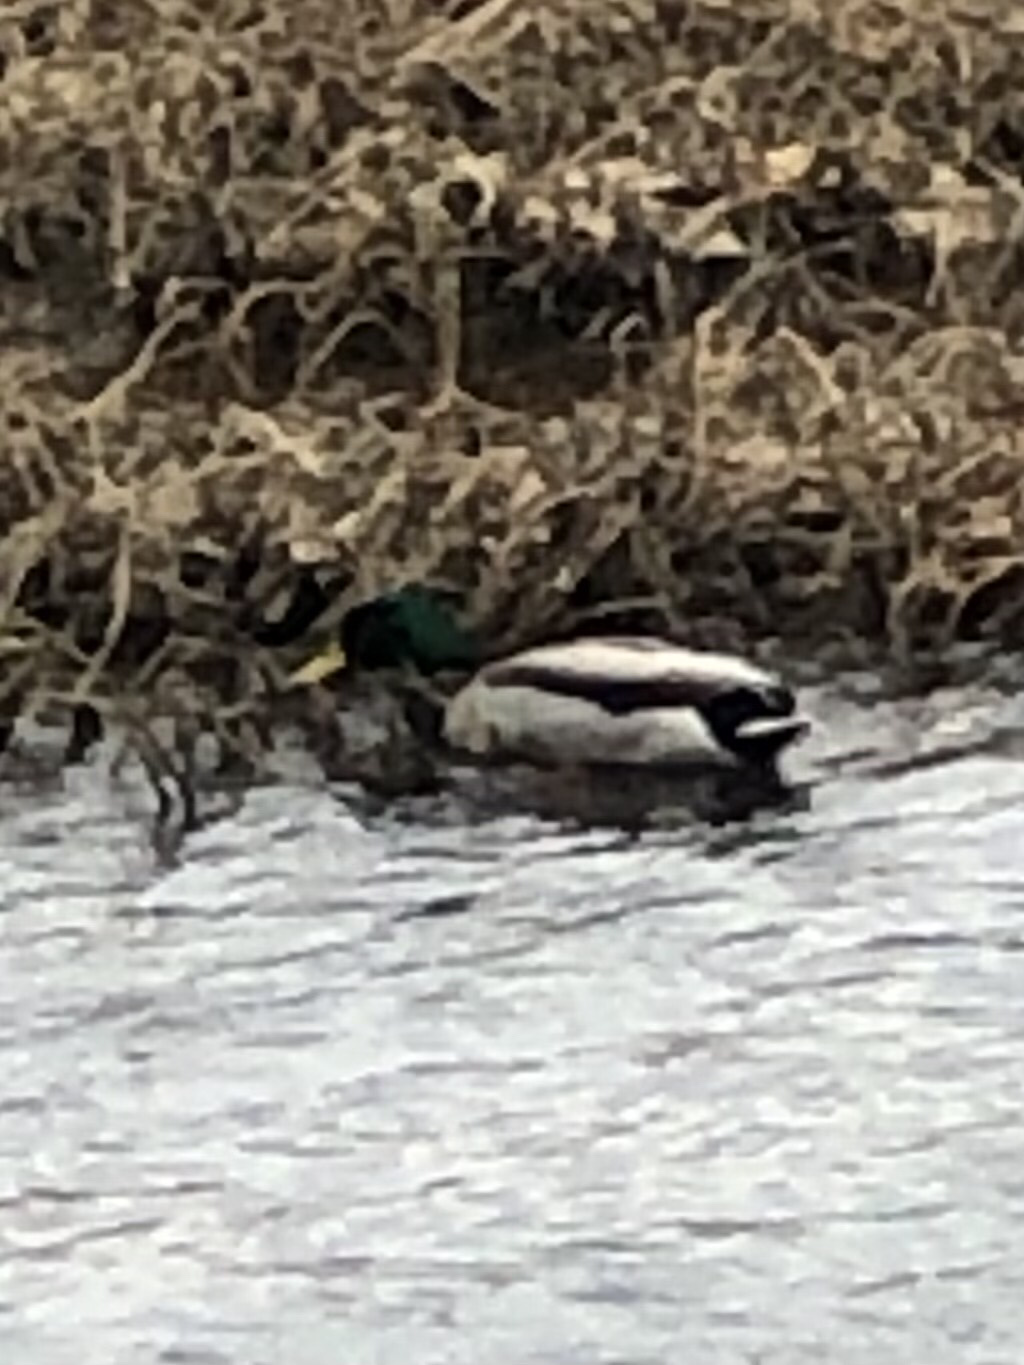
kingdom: Animalia
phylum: Chordata
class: Aves
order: Anseriformes
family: Anatidae
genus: Anas
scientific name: Anas platyrhynchos
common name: Mallard
